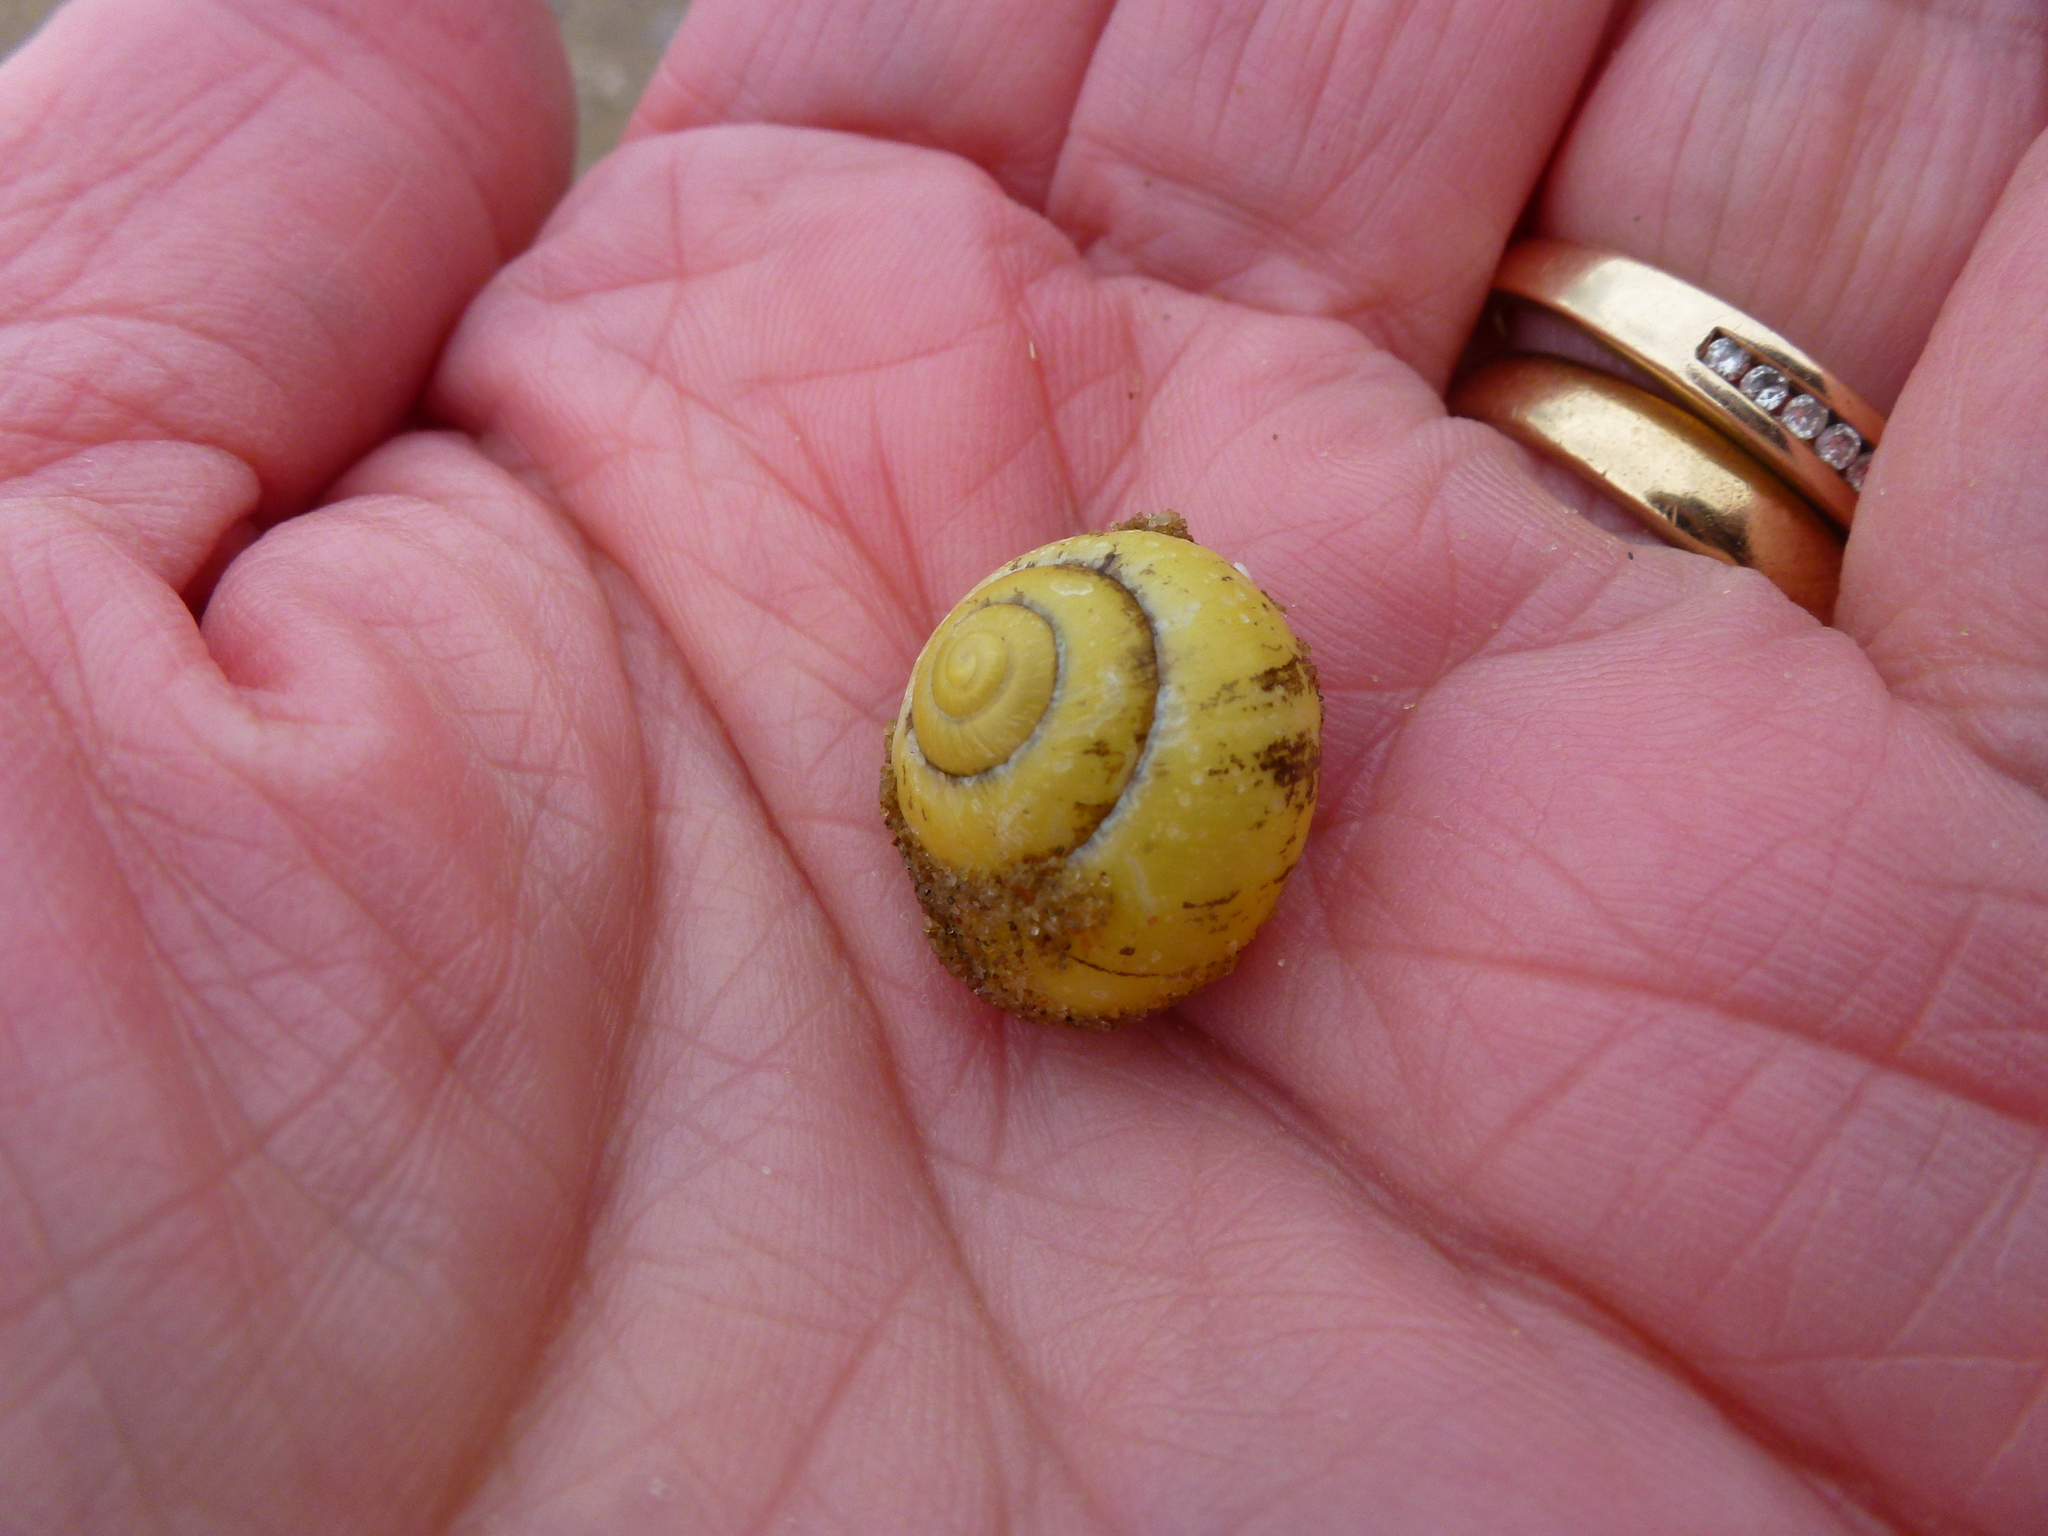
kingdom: Animalia
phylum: Mollusca
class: Gastropoda
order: Stylommatophora
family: Helicidae
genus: Cepaea
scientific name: Cepaea nemoralis
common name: Grovesnail
